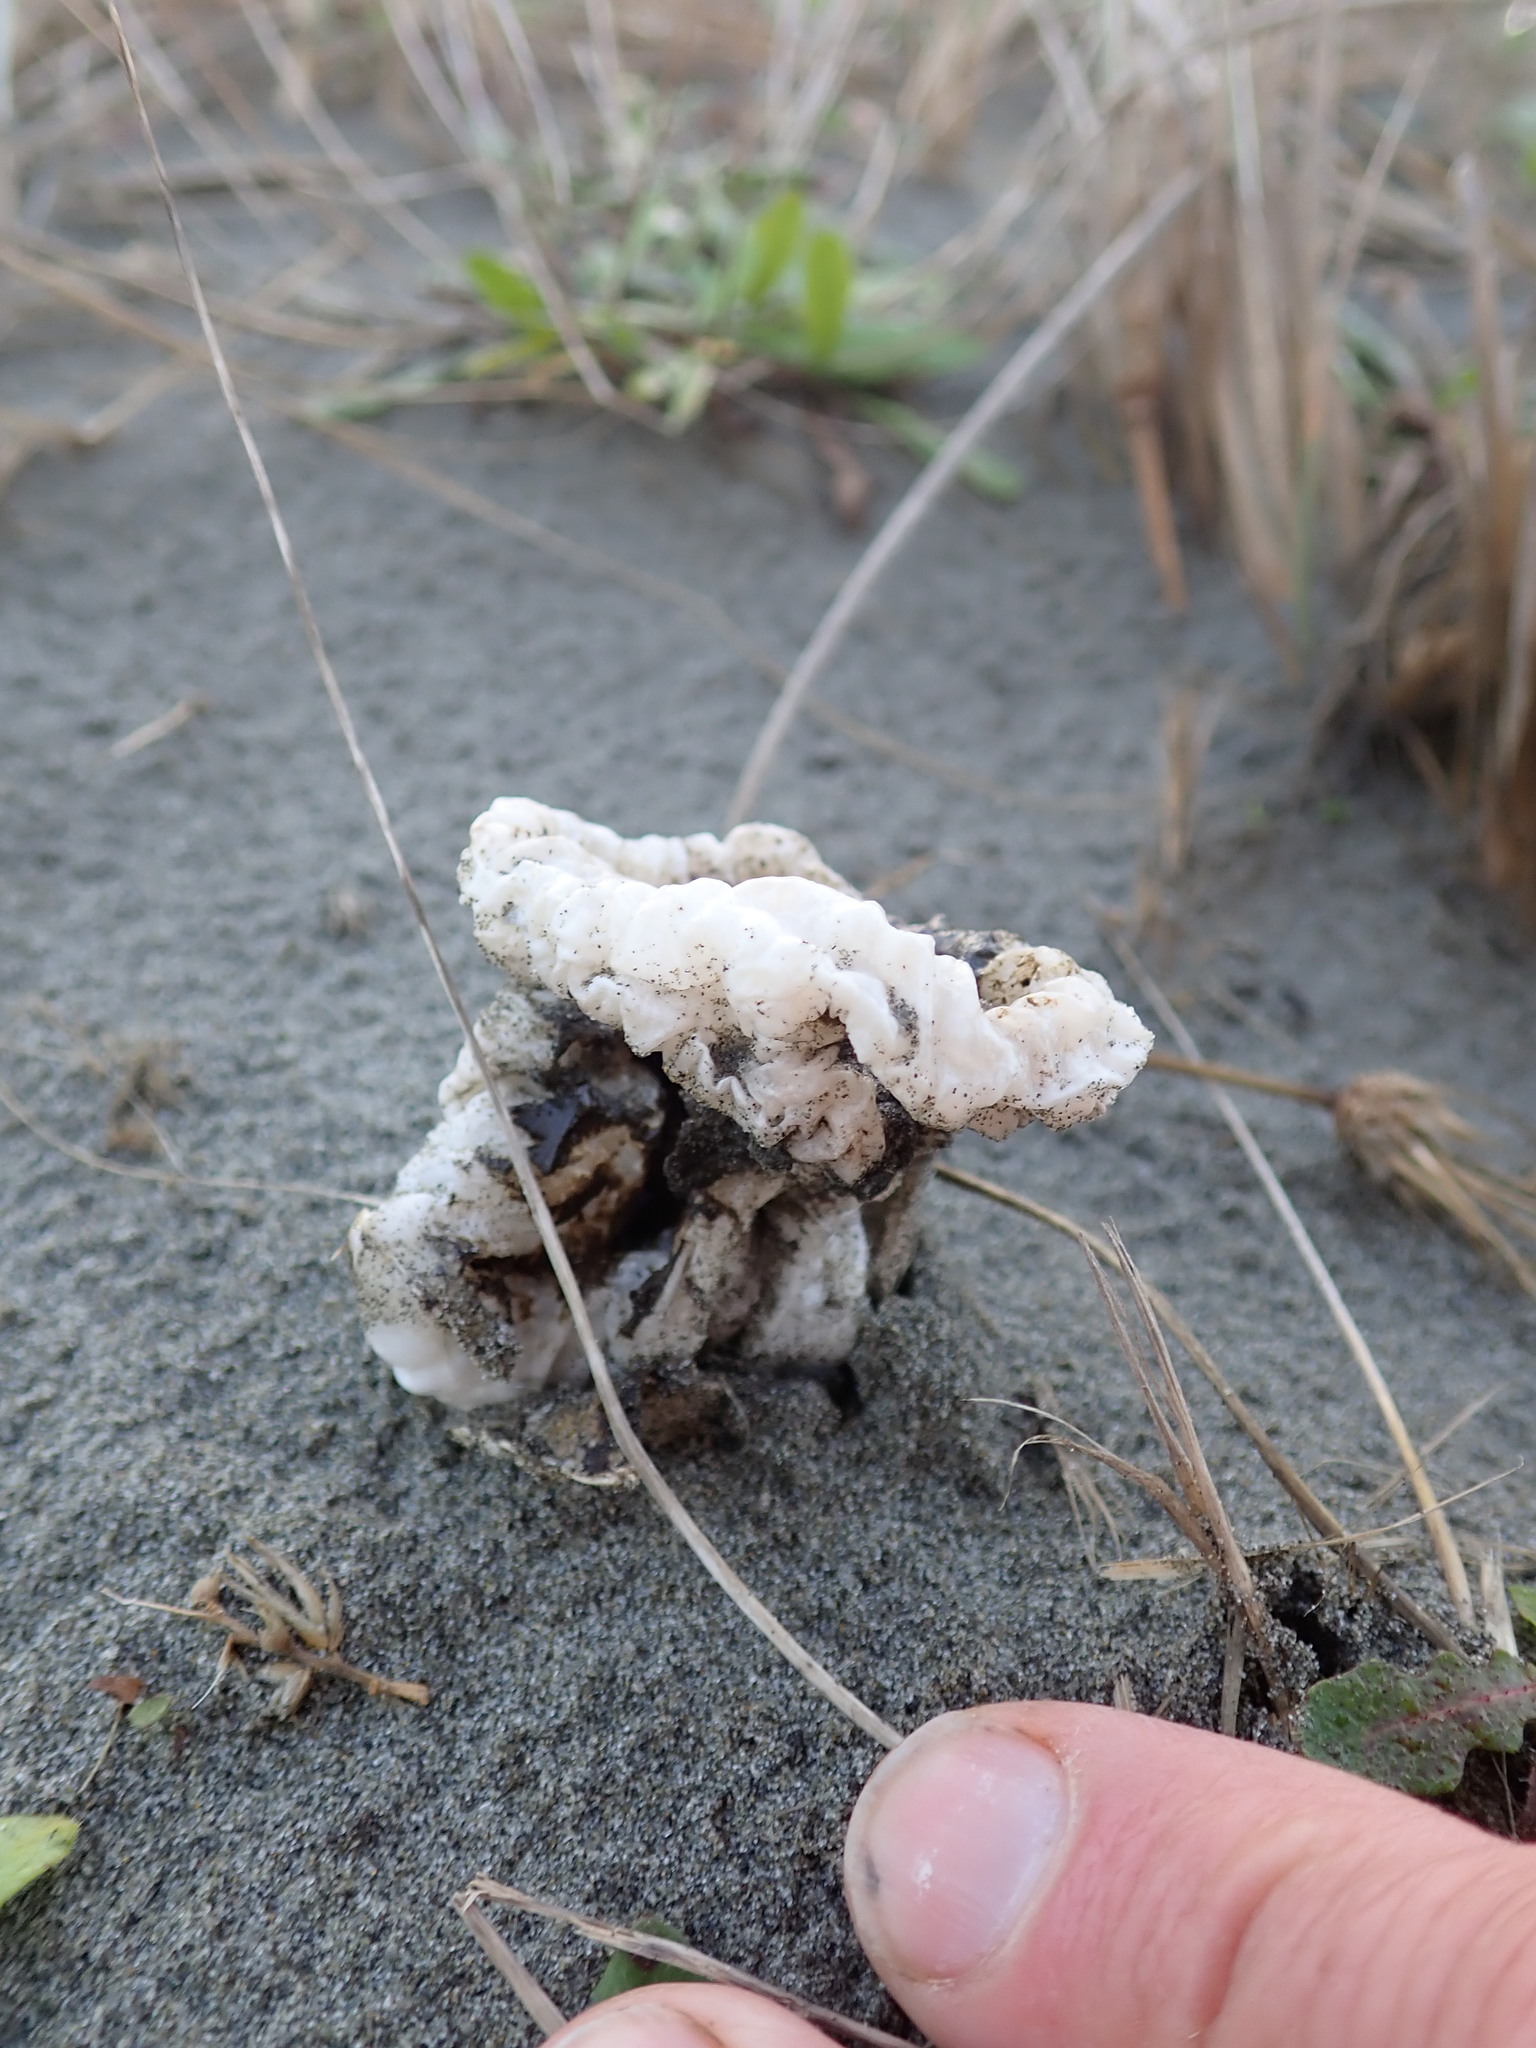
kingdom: Fungi
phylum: Basidiomycota
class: Agaricomycetes
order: Phallales
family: Phallaceae
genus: Ileodictyon
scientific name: Ileodictyon cibarium
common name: Basket fungus
